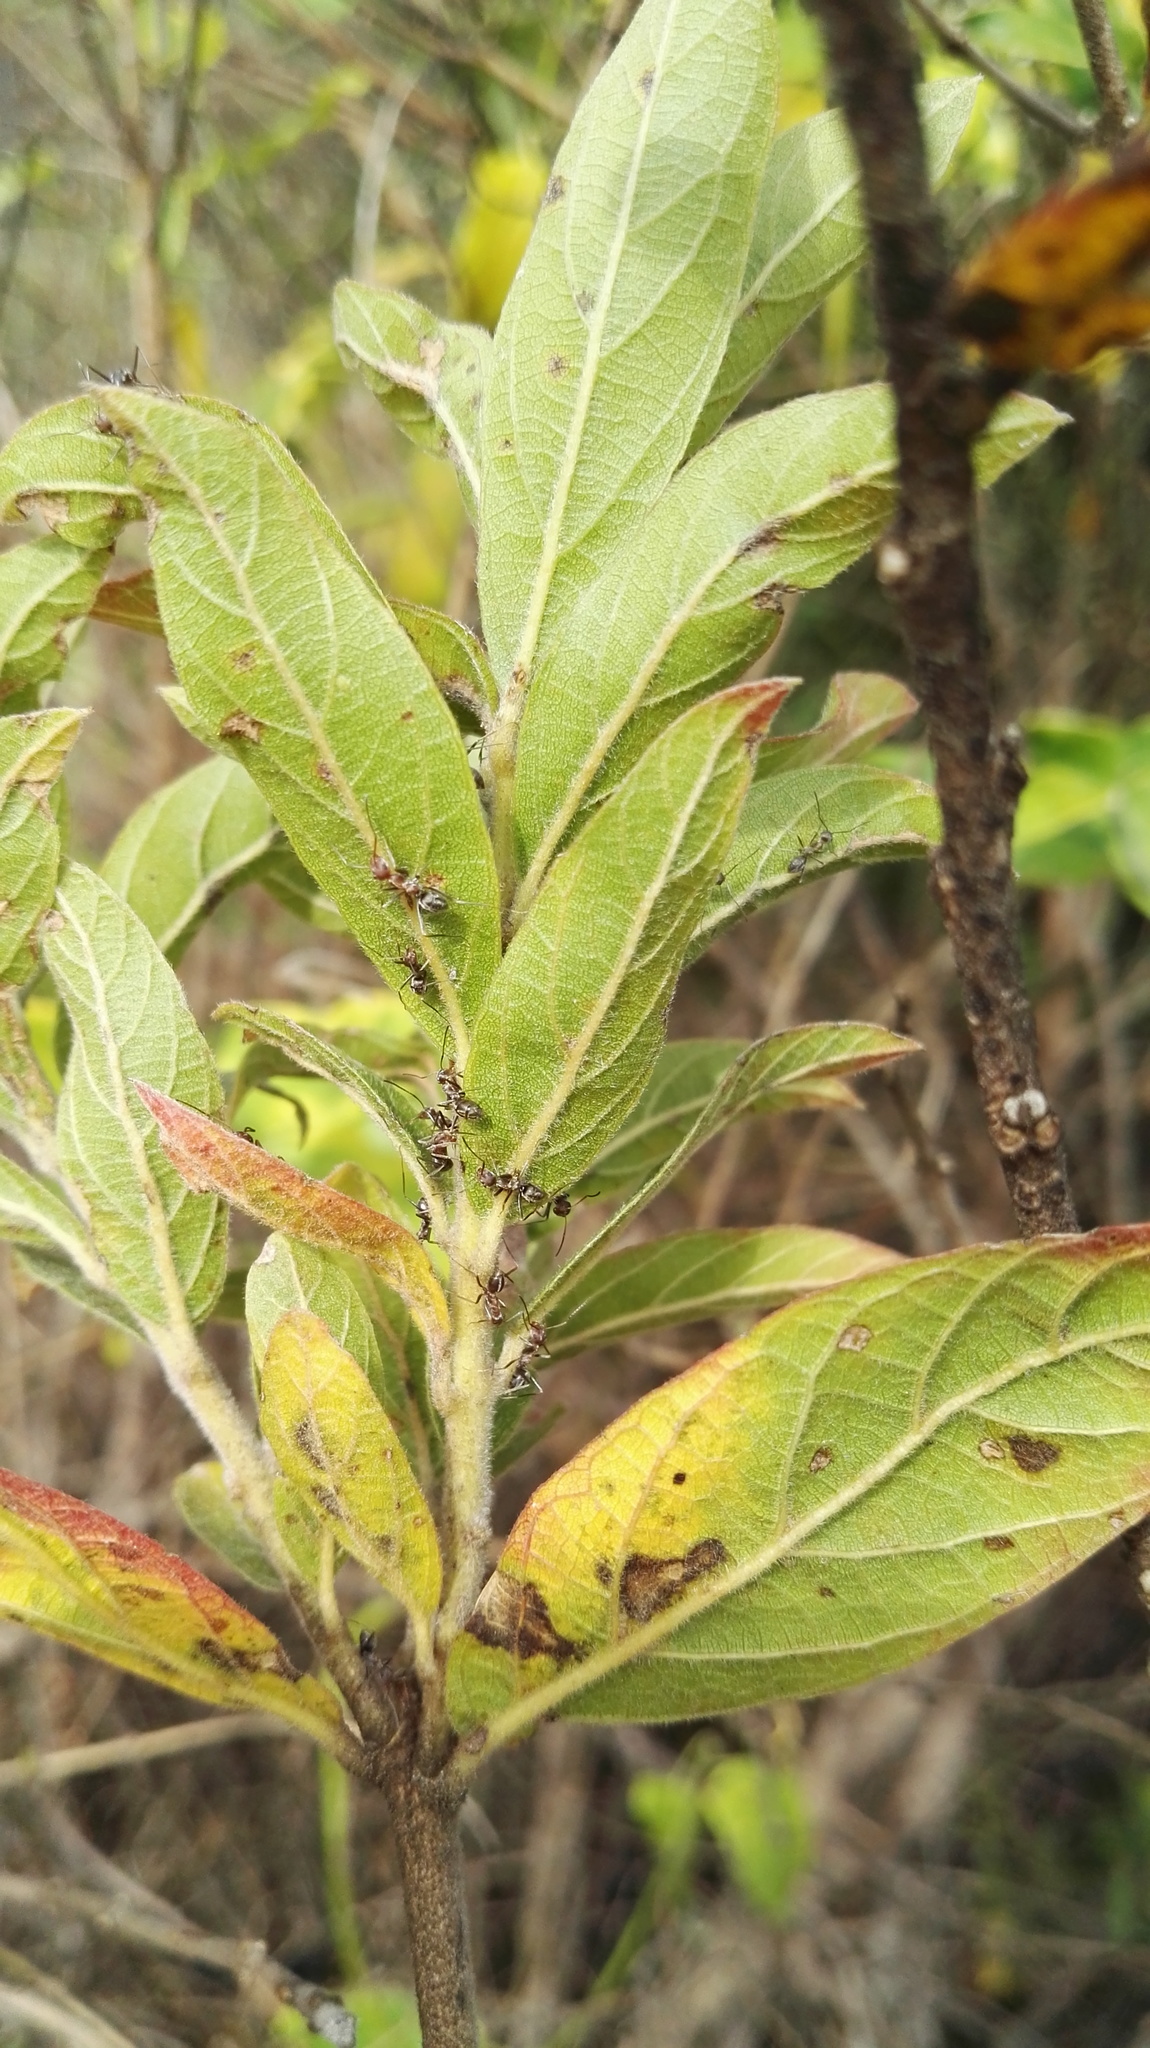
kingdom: Plantae
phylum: Tracheophyta
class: Magnoliopsida
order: Myrtales
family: Combretaceae
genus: Combretum
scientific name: Combretum erythrophyllum
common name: Bush-willow
